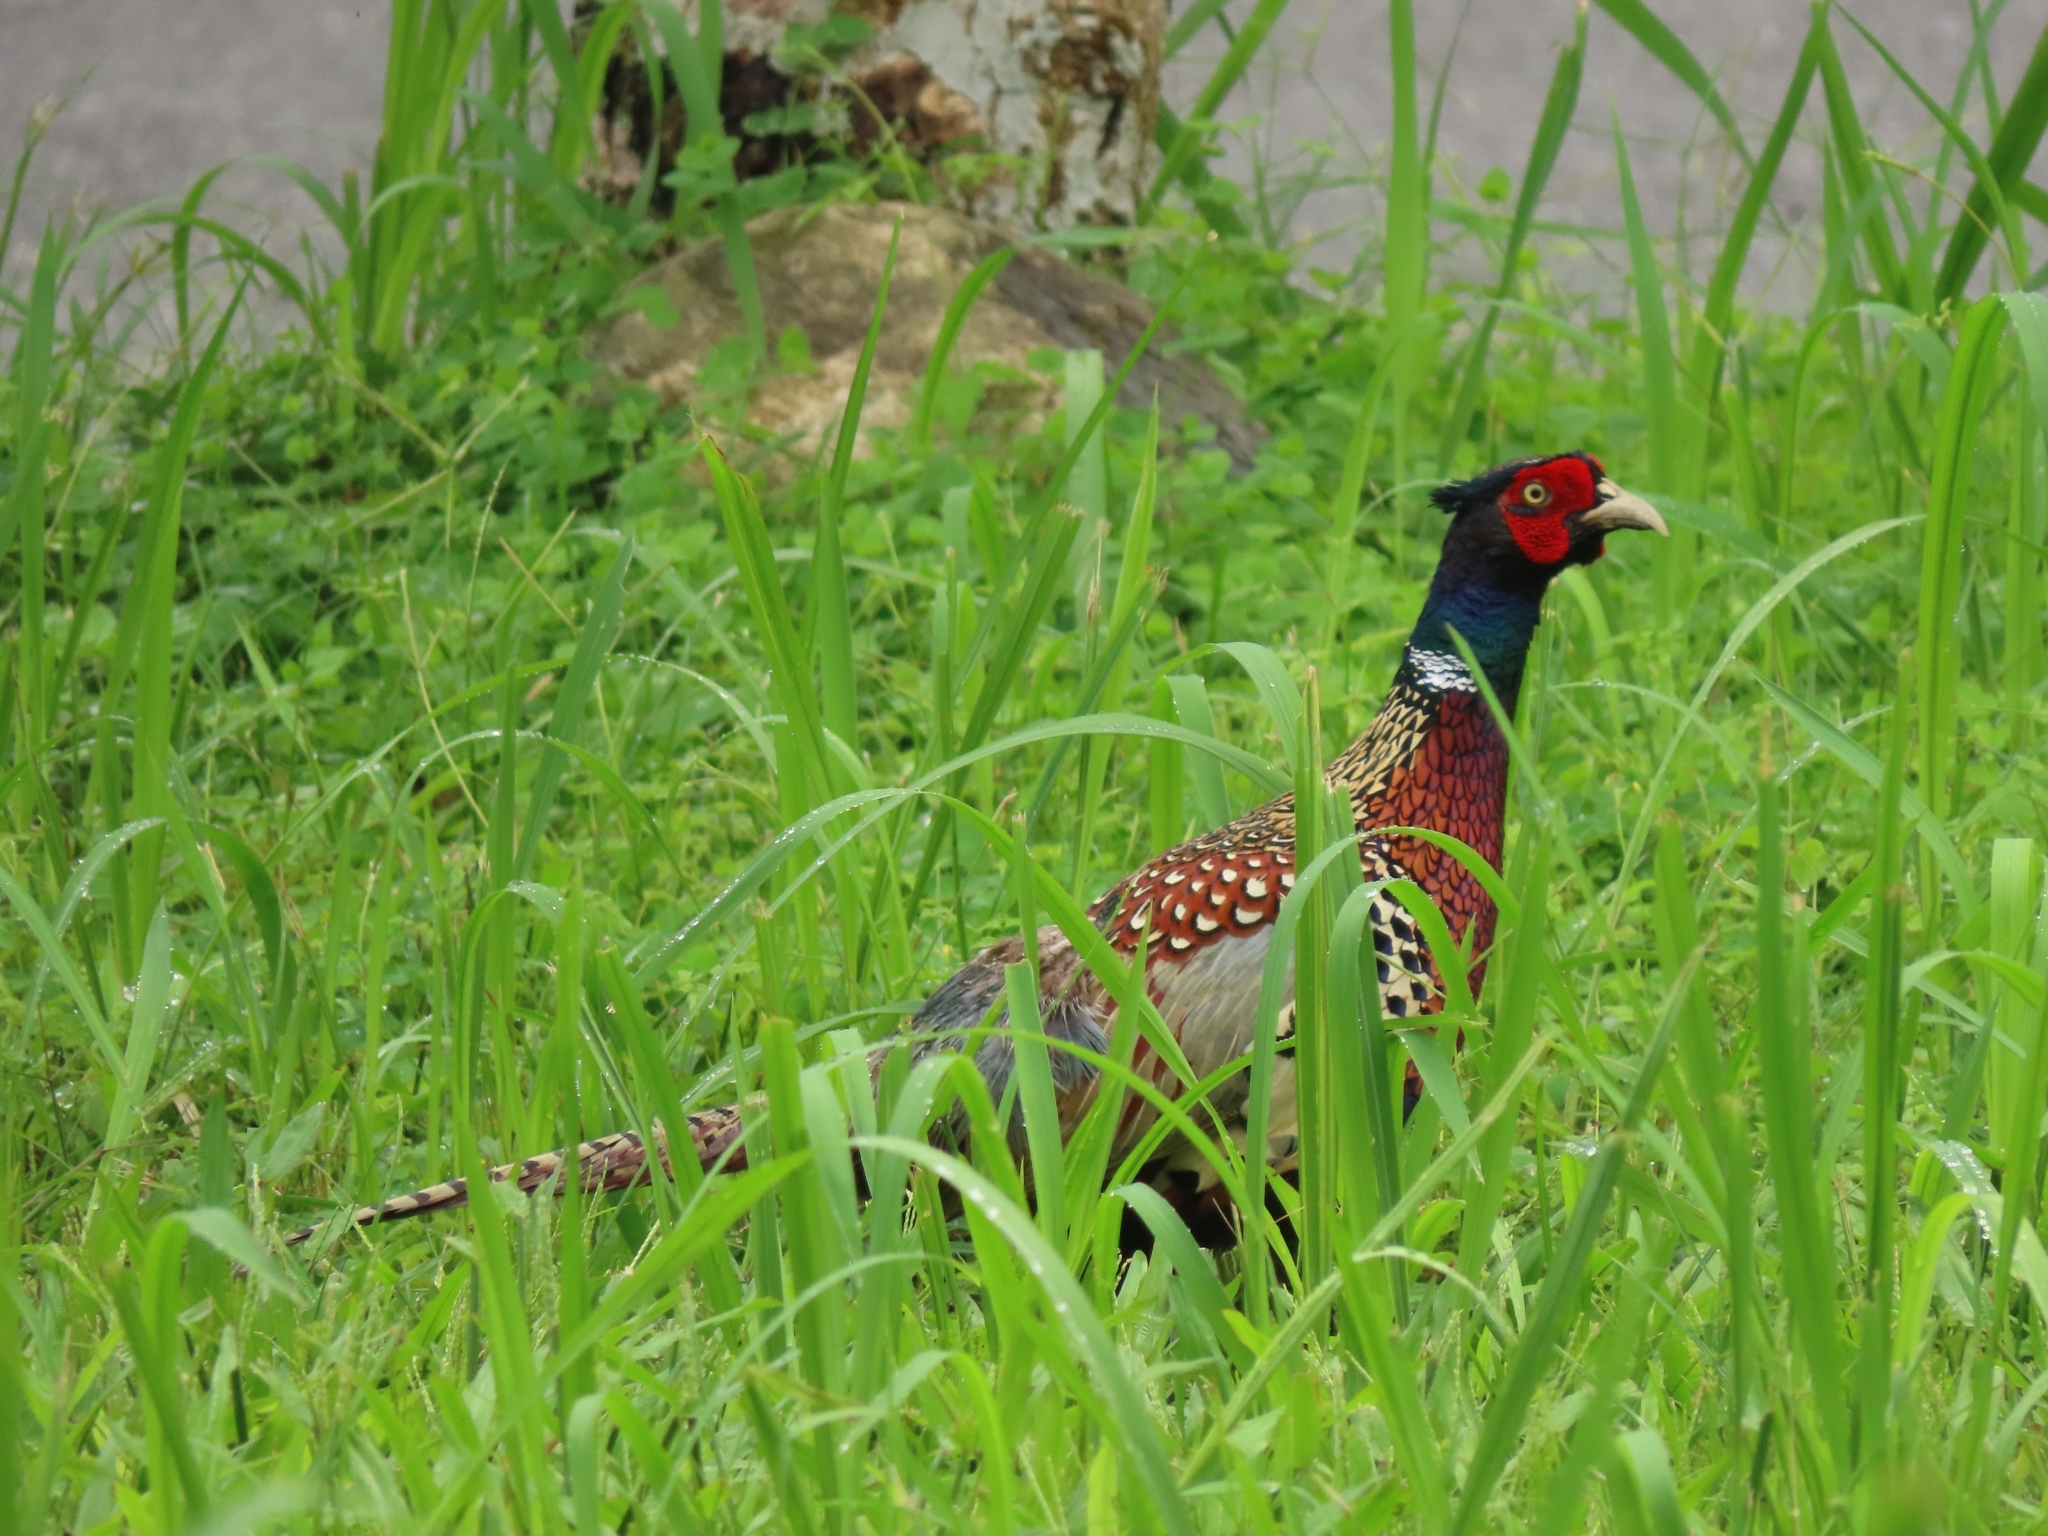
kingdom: Animalia
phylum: Chordata
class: Aves
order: Galliformes
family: Phasianidae
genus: Phasianus
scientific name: Phasianus colchicus
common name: Common pheasant
